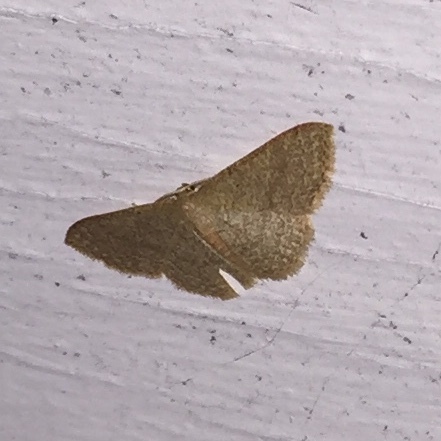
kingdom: Animalia
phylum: Arthropoda
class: Insecta
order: Lepidoptera
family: Geometridae
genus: Pleuroprucha
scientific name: Pleuroprucha insulsaria
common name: Common tan wave
